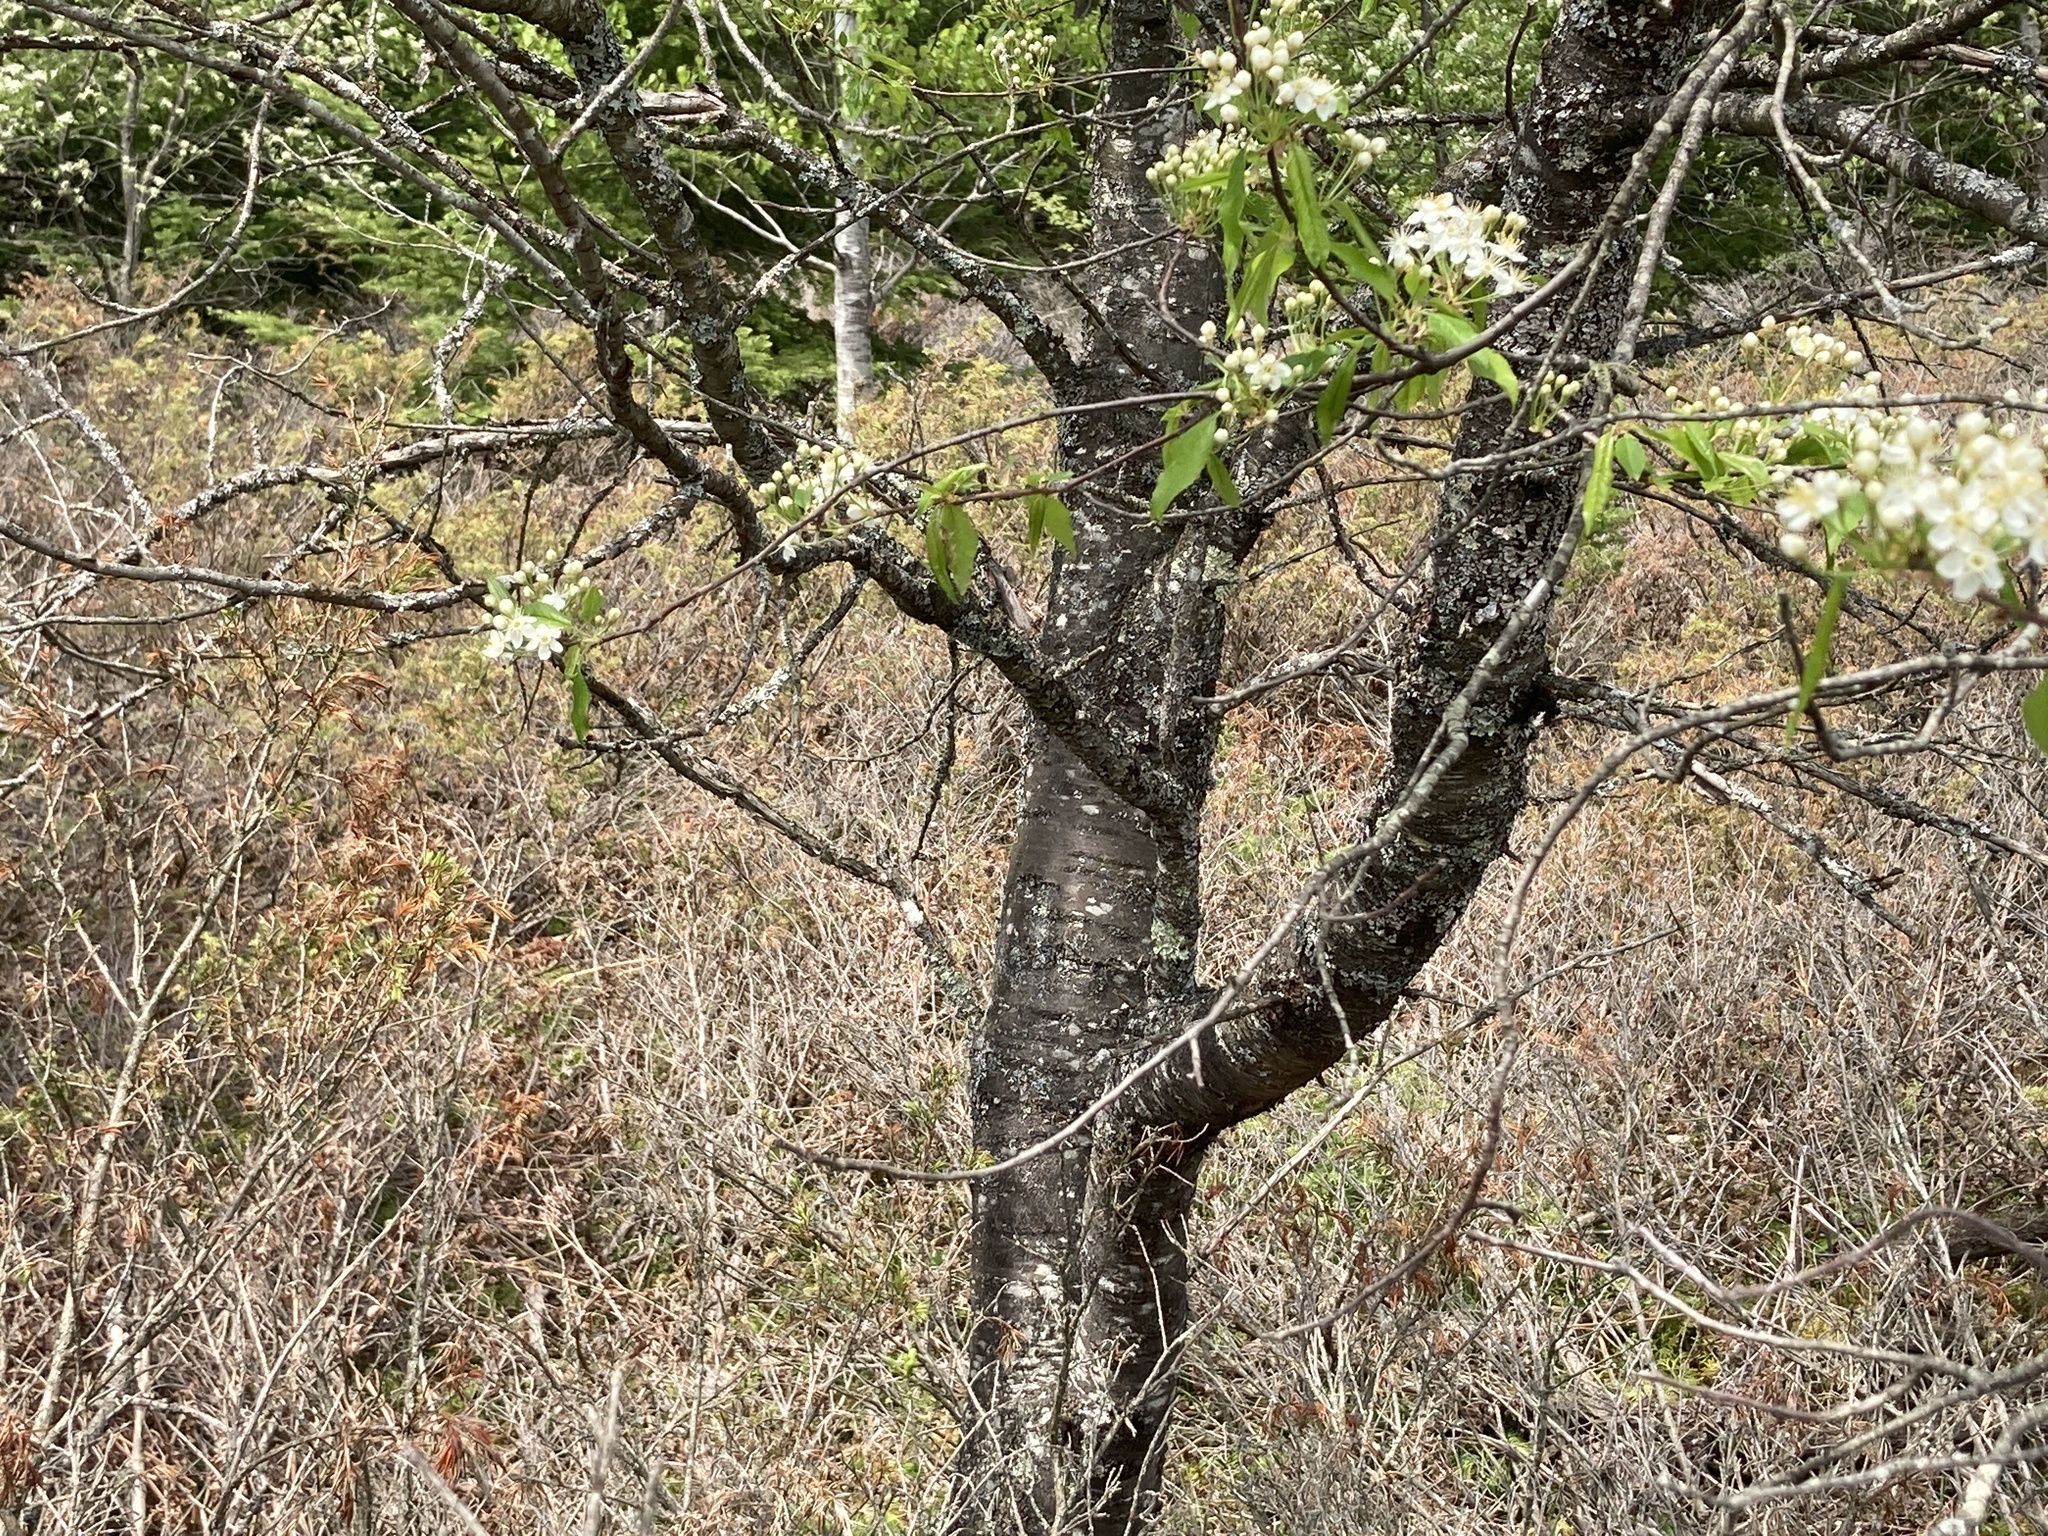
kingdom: Plantae
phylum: Tracheophyta
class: Magnoliopsida
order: Rosales
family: Rosaceae
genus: Prunus
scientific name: Prunus pensylvanica
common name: Pin cherry
